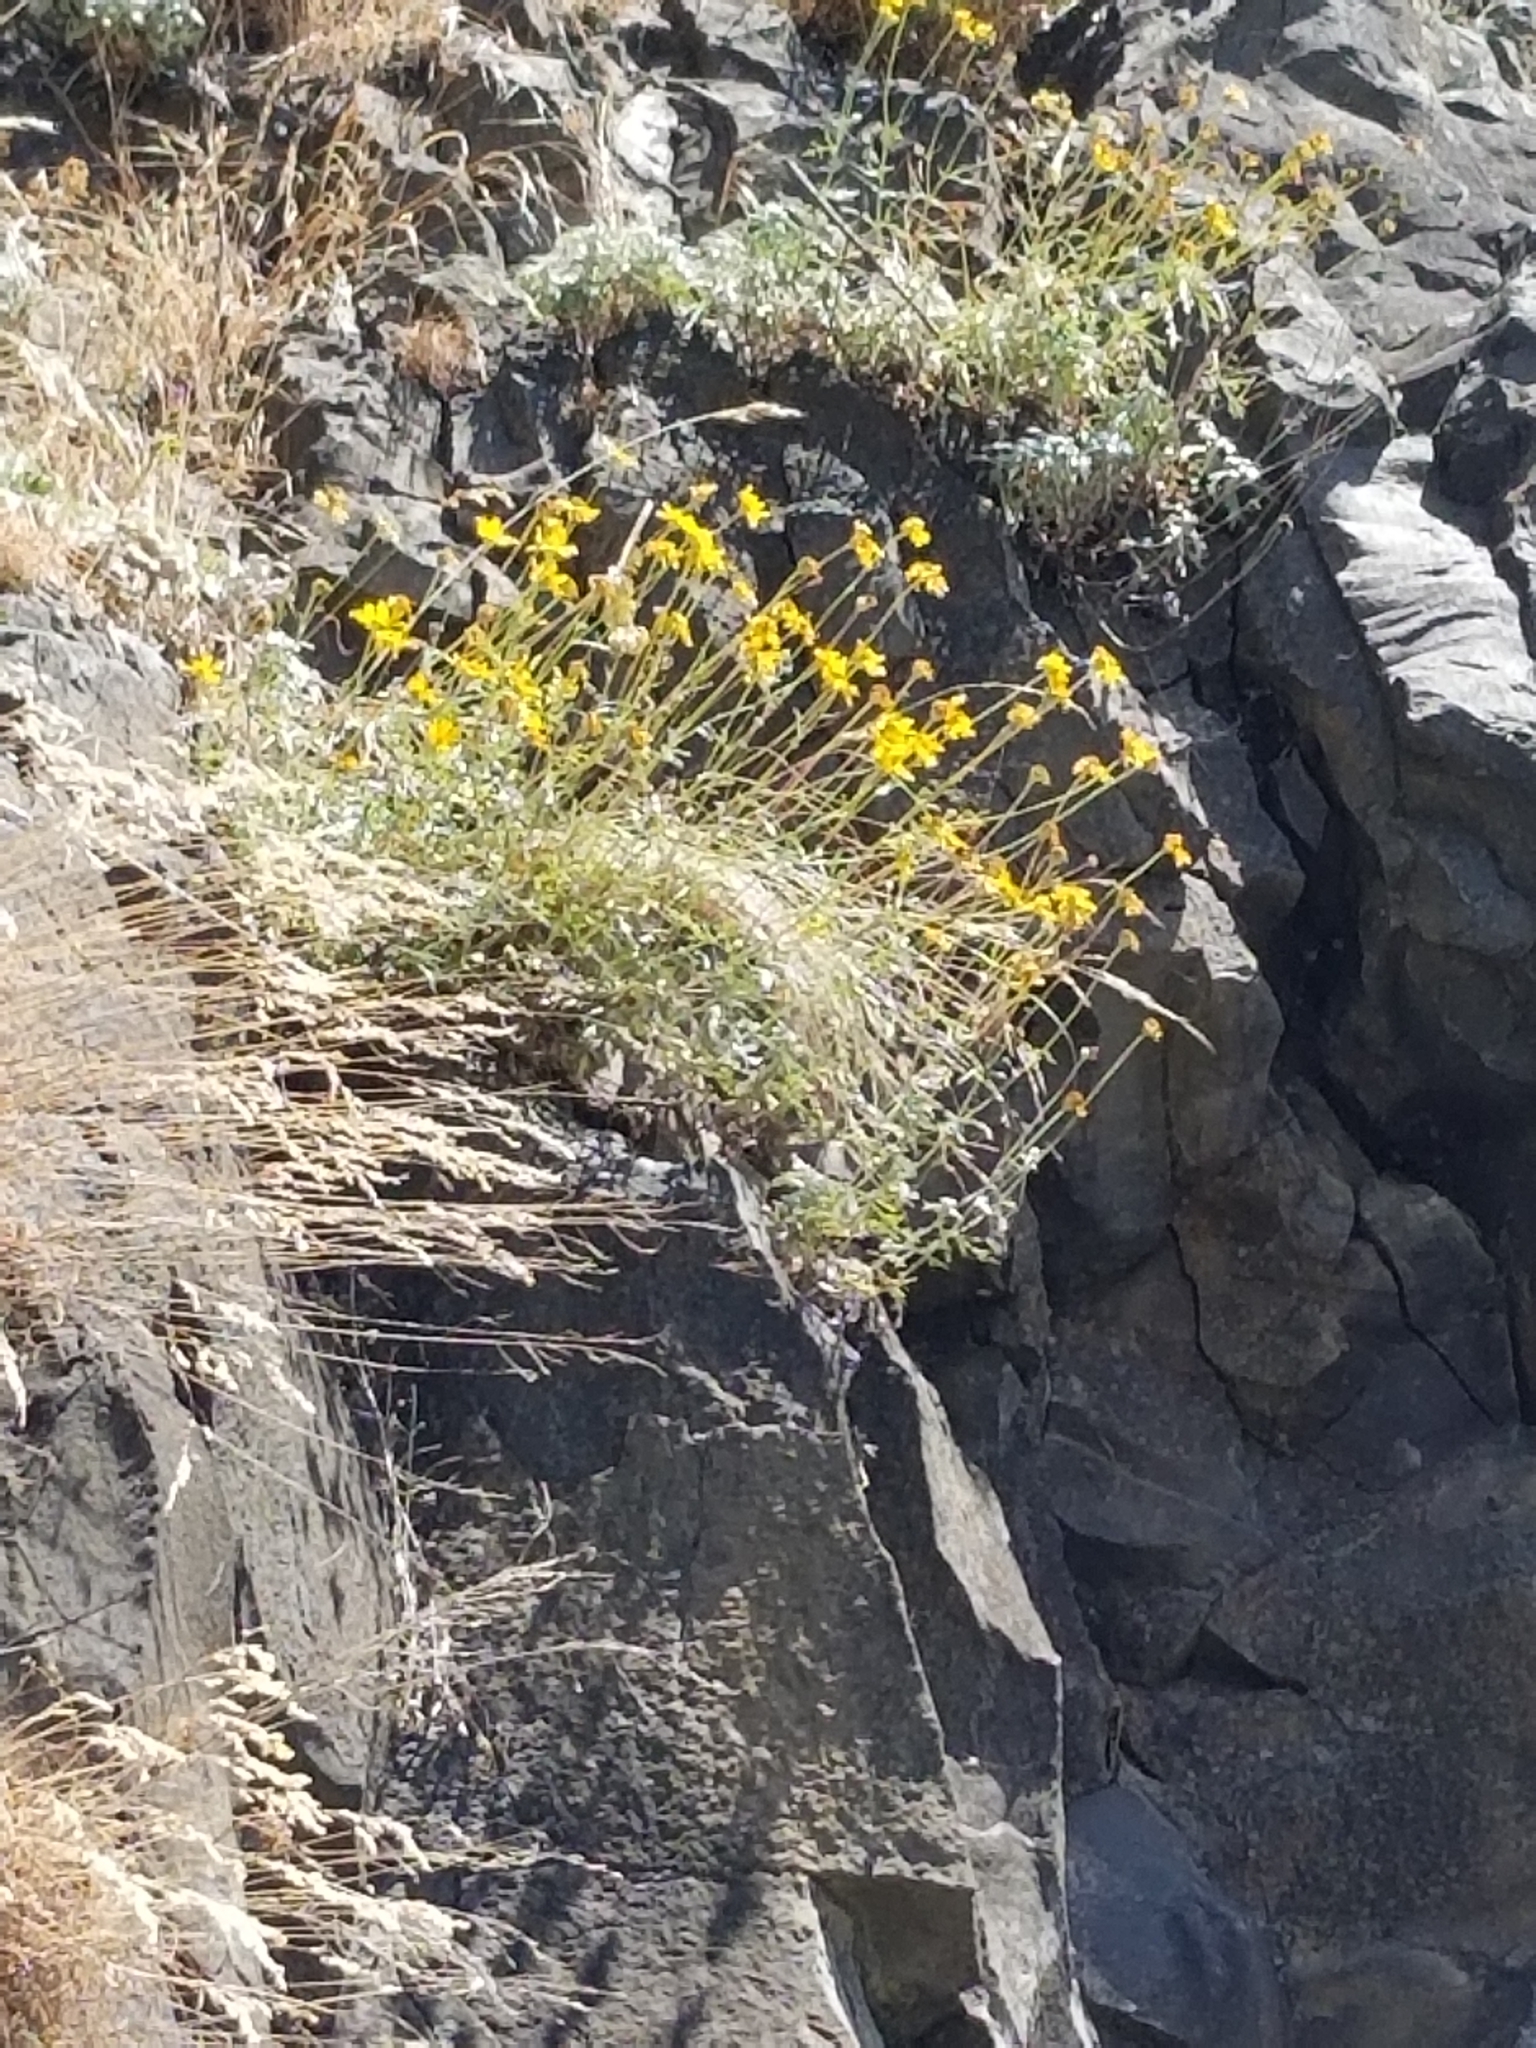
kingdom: Plantae
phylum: Tracheophyta
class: Magnoliopsida
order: Asterales
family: Asteraceae
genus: Eriophyllum
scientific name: Eriophyllum lanatum
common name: Common woolly-sunflower
